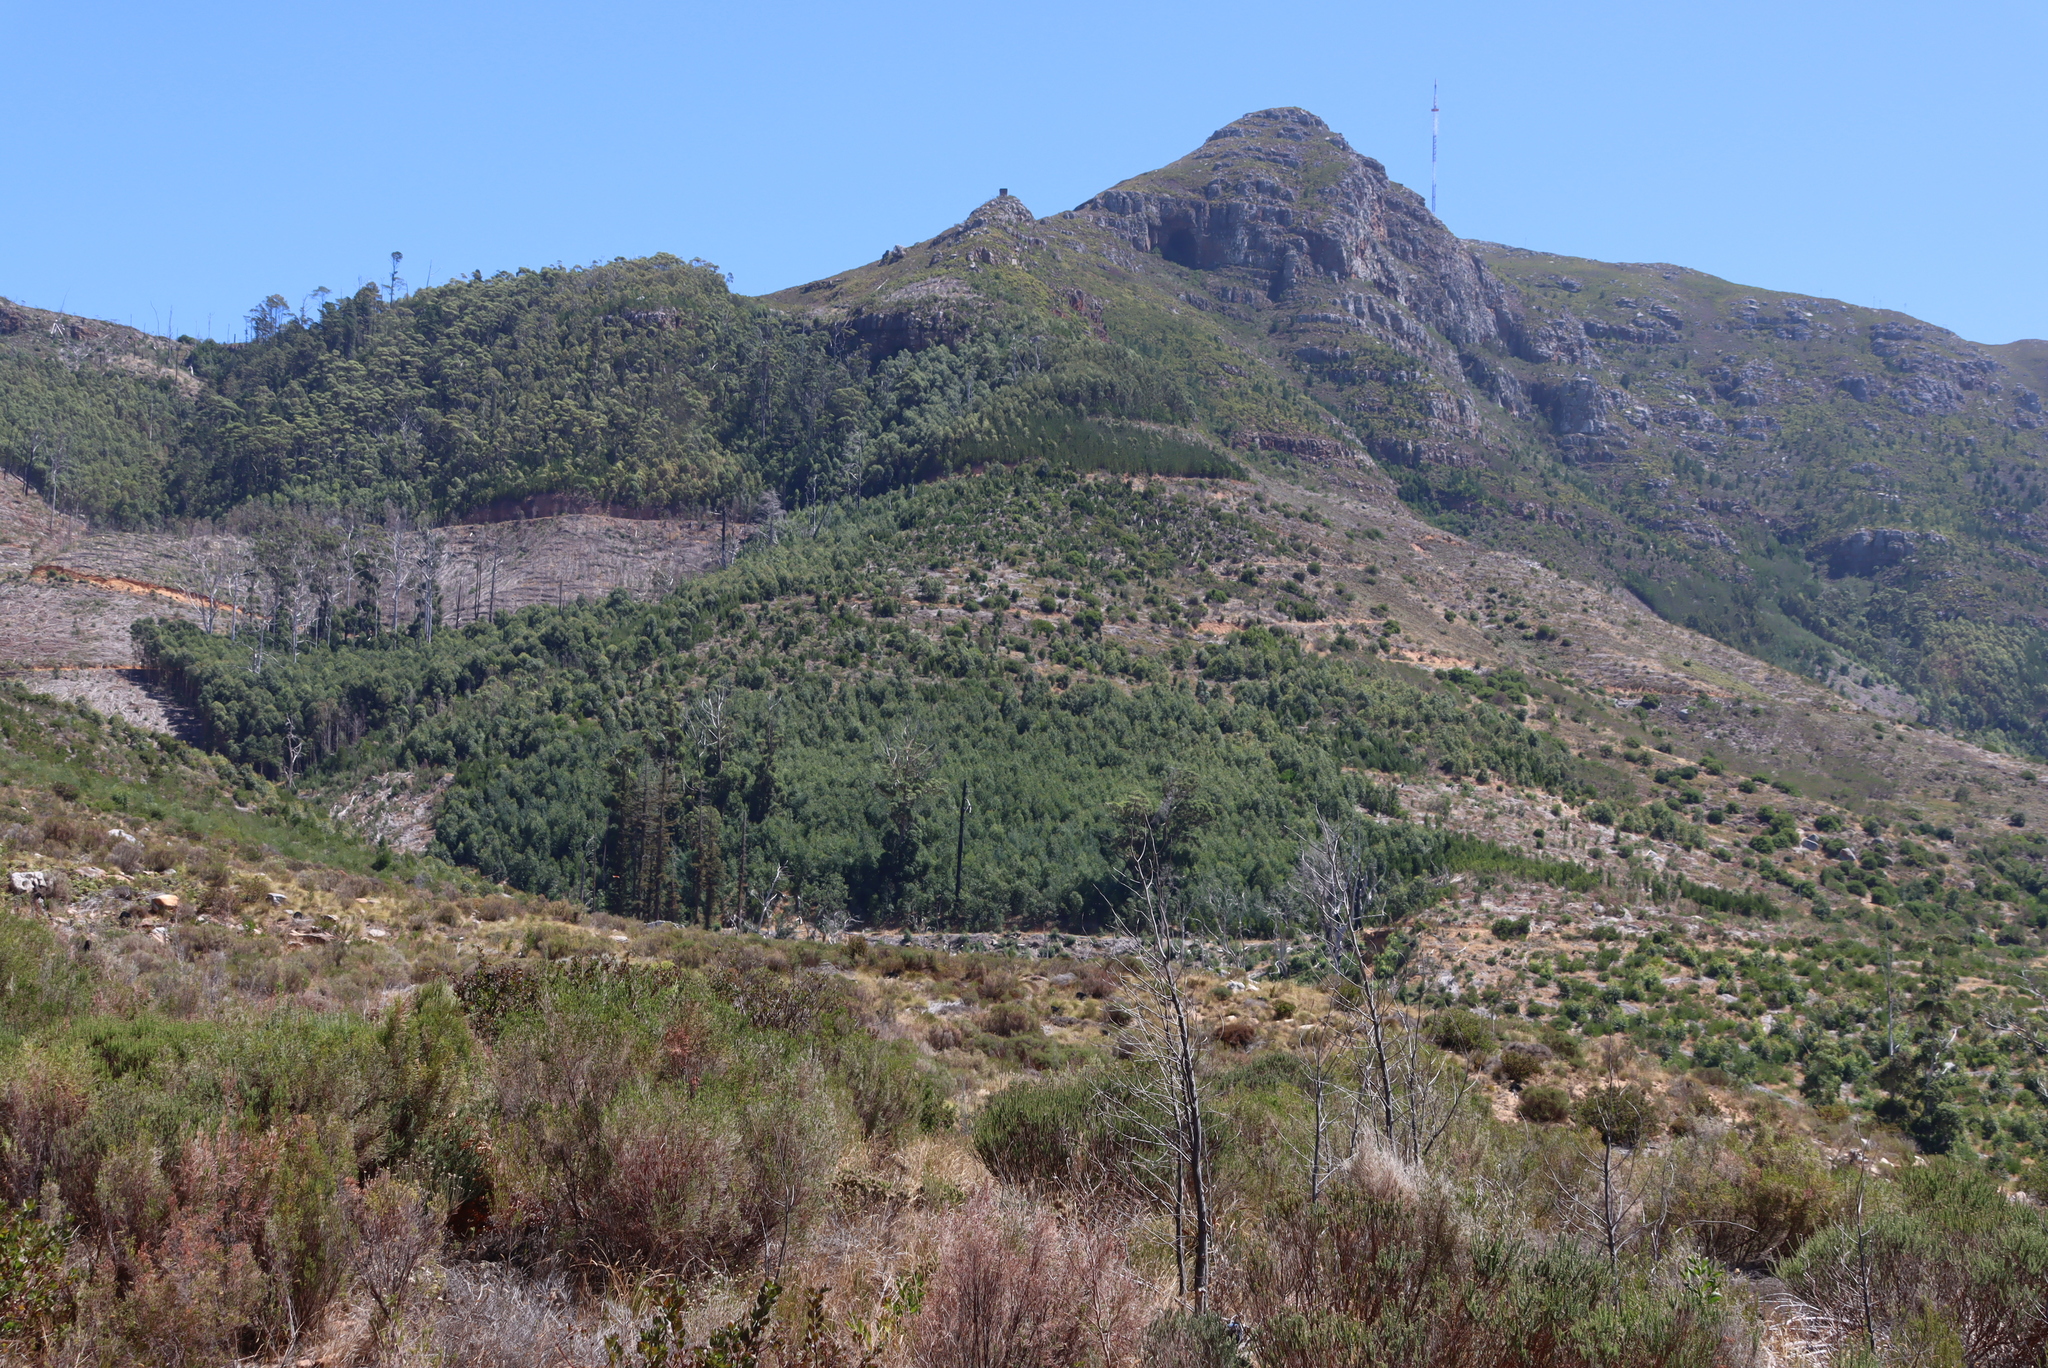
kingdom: Plantae
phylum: Tracheophyta
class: Magnoliopsida
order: Fabales
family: Fabaceae
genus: Acacia
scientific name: Acacia melanoxylon
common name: Blackwood
